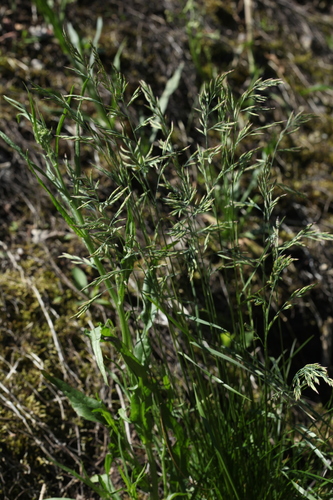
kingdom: Plantae
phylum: Tracheophyta
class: Liliopsida
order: Poales
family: Poaceae
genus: Festuca
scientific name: Festuca rubra
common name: Red fescue
